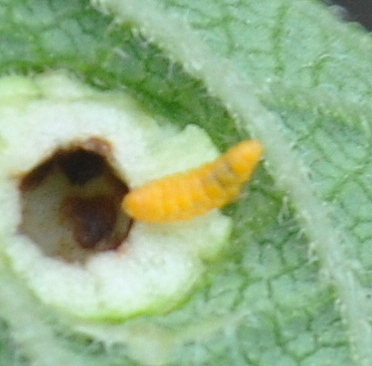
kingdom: Animalia
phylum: Arthropoda
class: Insecta
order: Diptera
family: Cecidomyiidae
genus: Schismatodiplosis
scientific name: Schismatodiplosis
